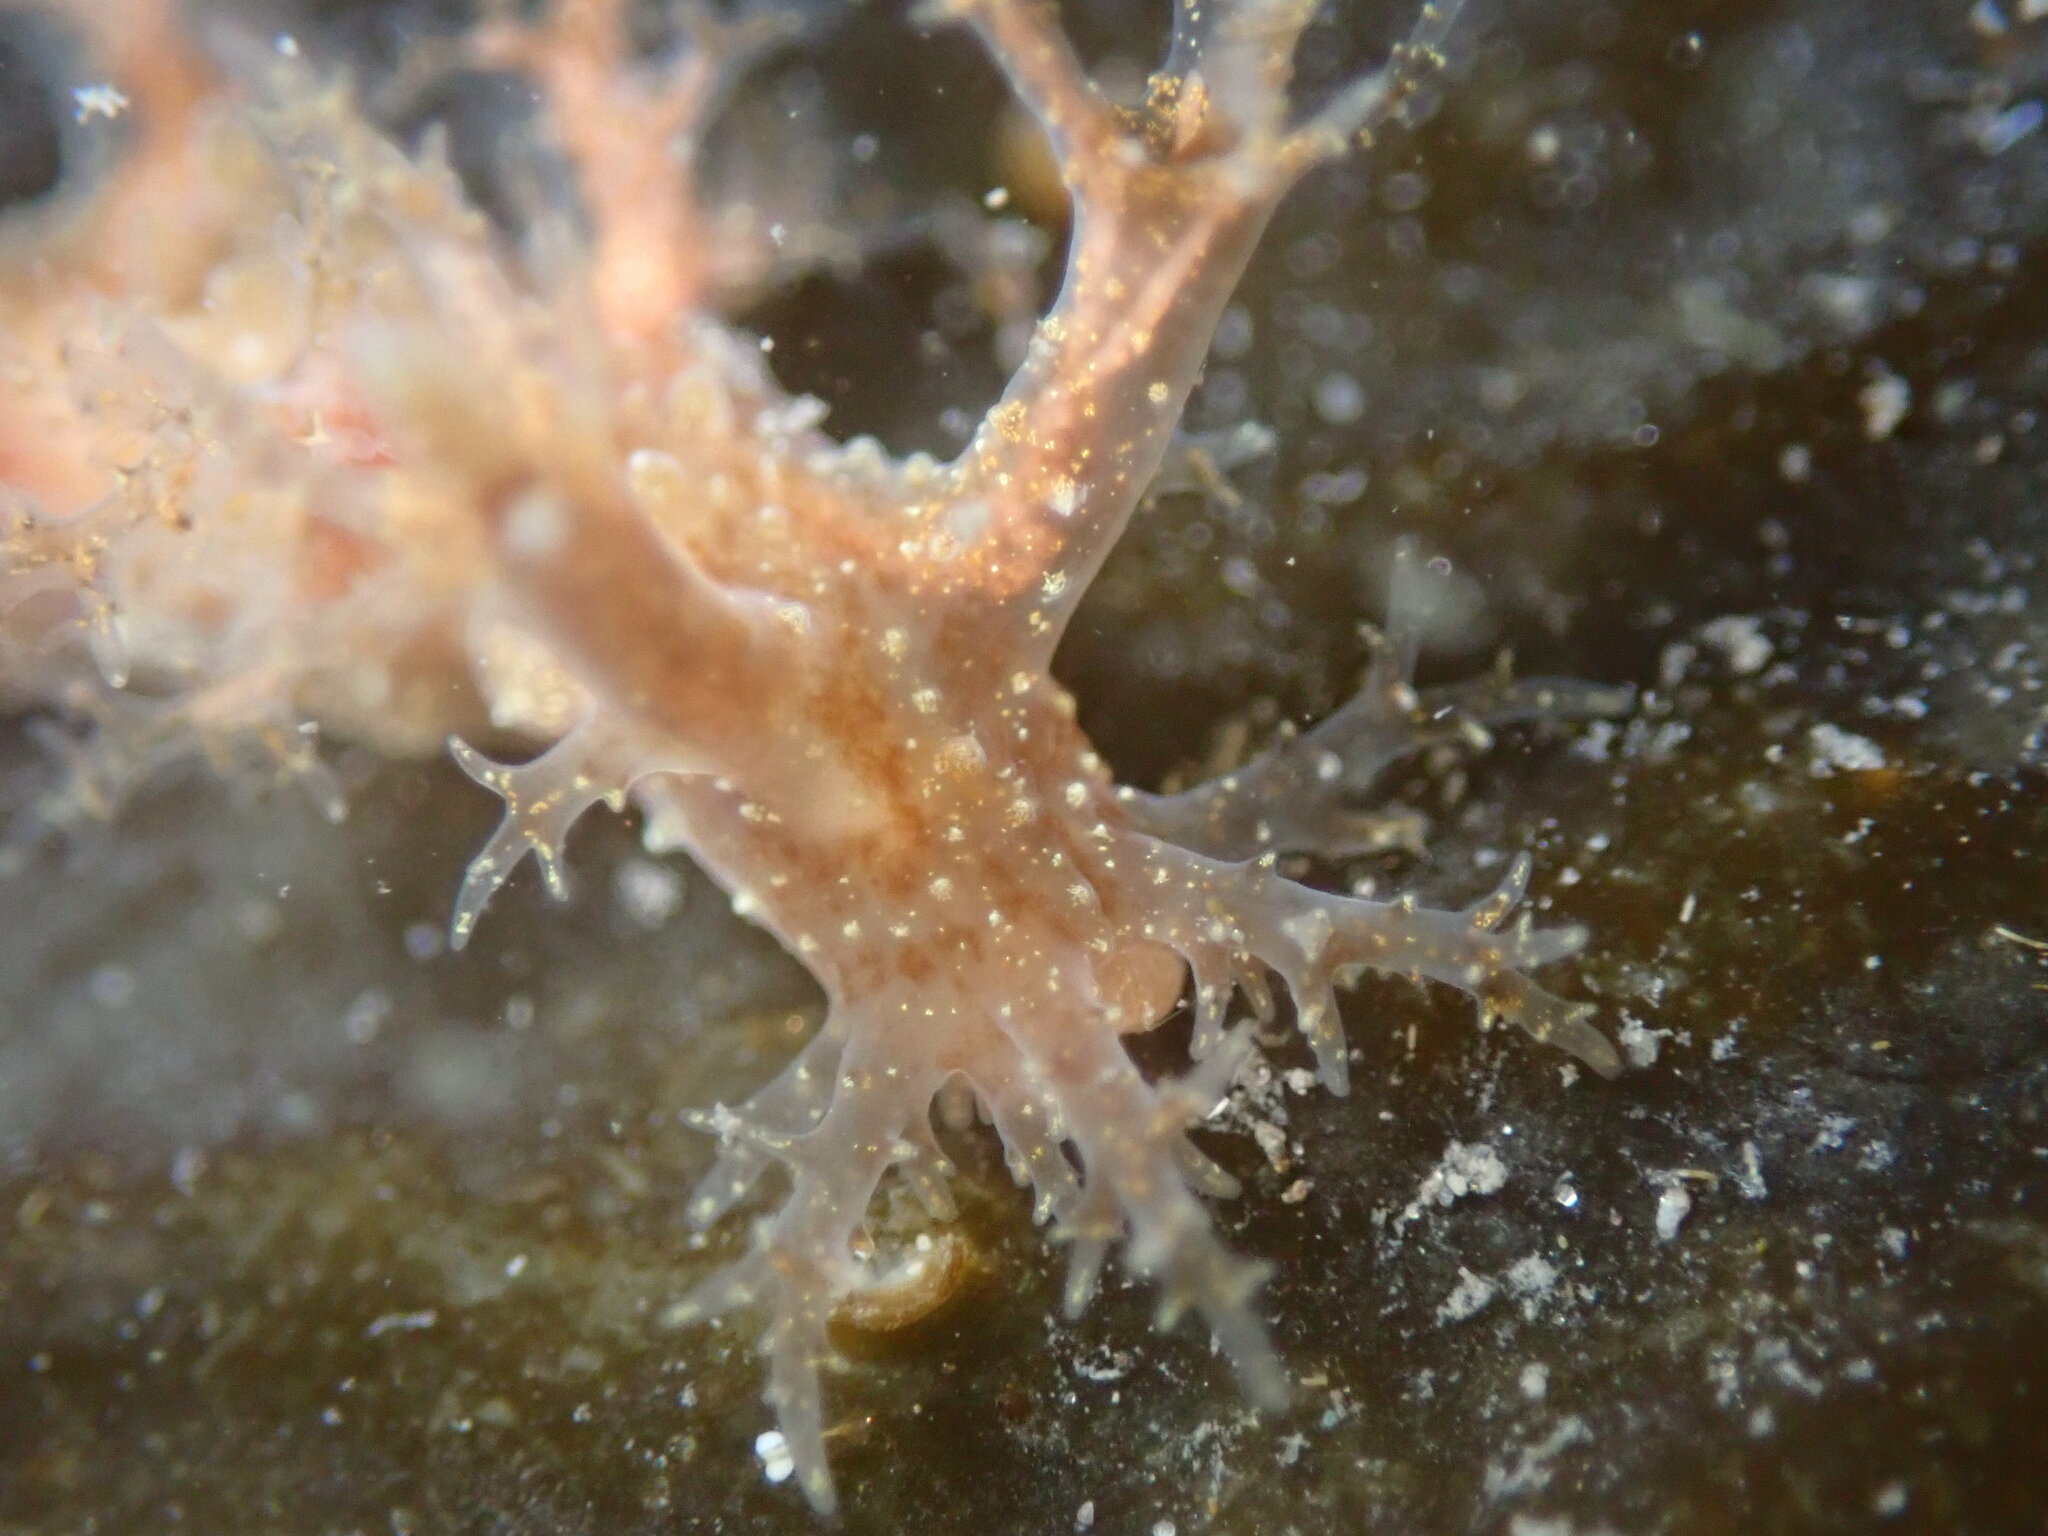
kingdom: Animalia
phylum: Mollusca
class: Gastropoda
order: Nudibranchia
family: Dendronotidae
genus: Dendronotus
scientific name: Dendronotus venustus
